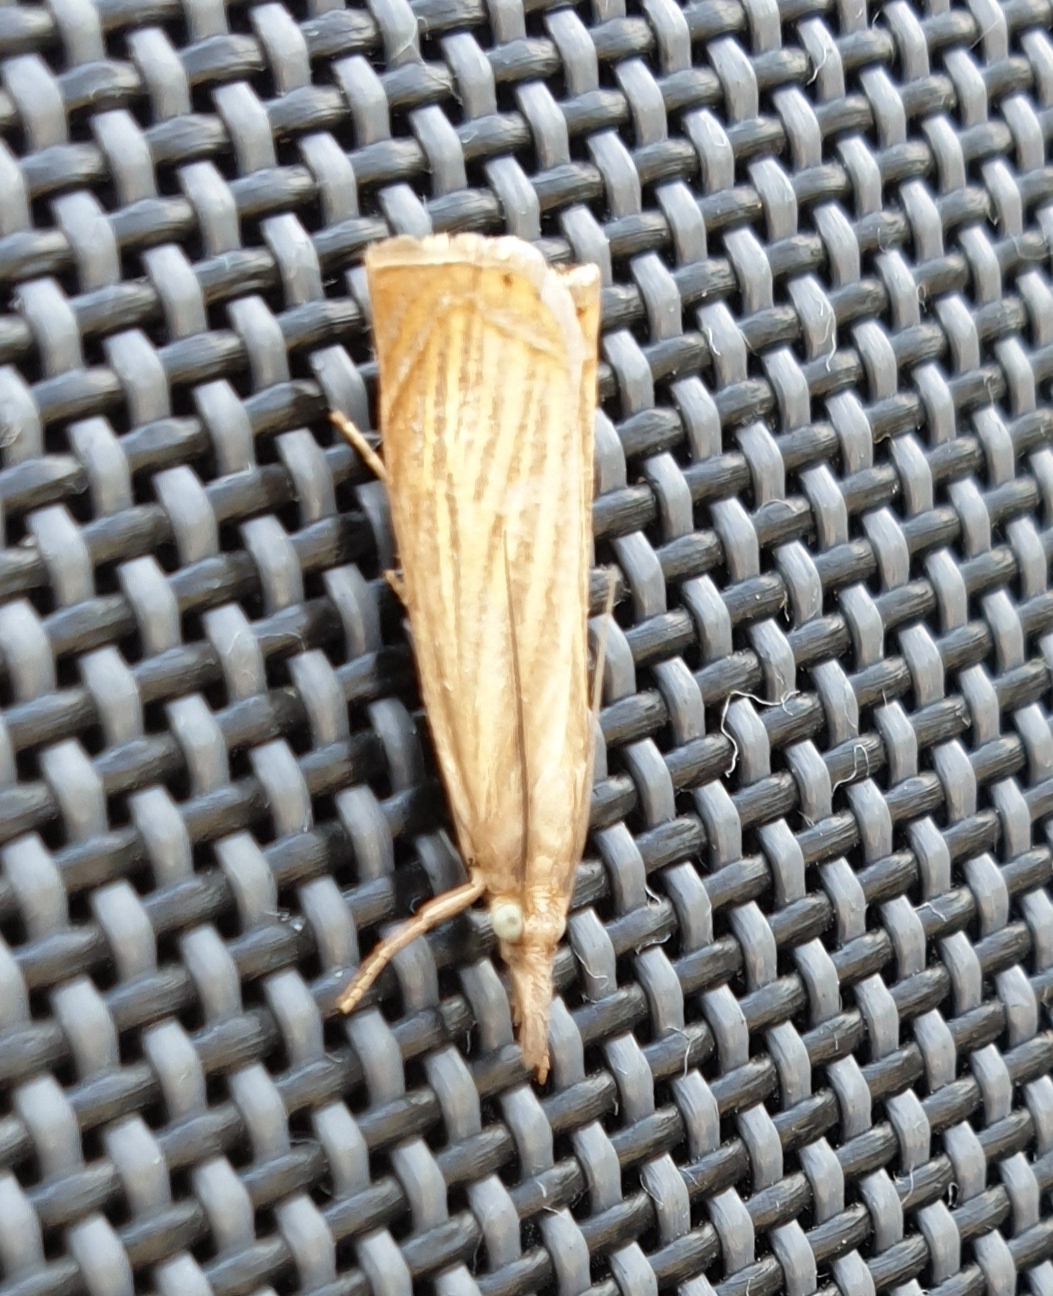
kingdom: Animalia
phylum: Arthropoda
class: Insecta
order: Lepidoptera
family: Crambidae
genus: Chrysoteuchia
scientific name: Chrysoteuchia culmella
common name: Garden grass-veneer
